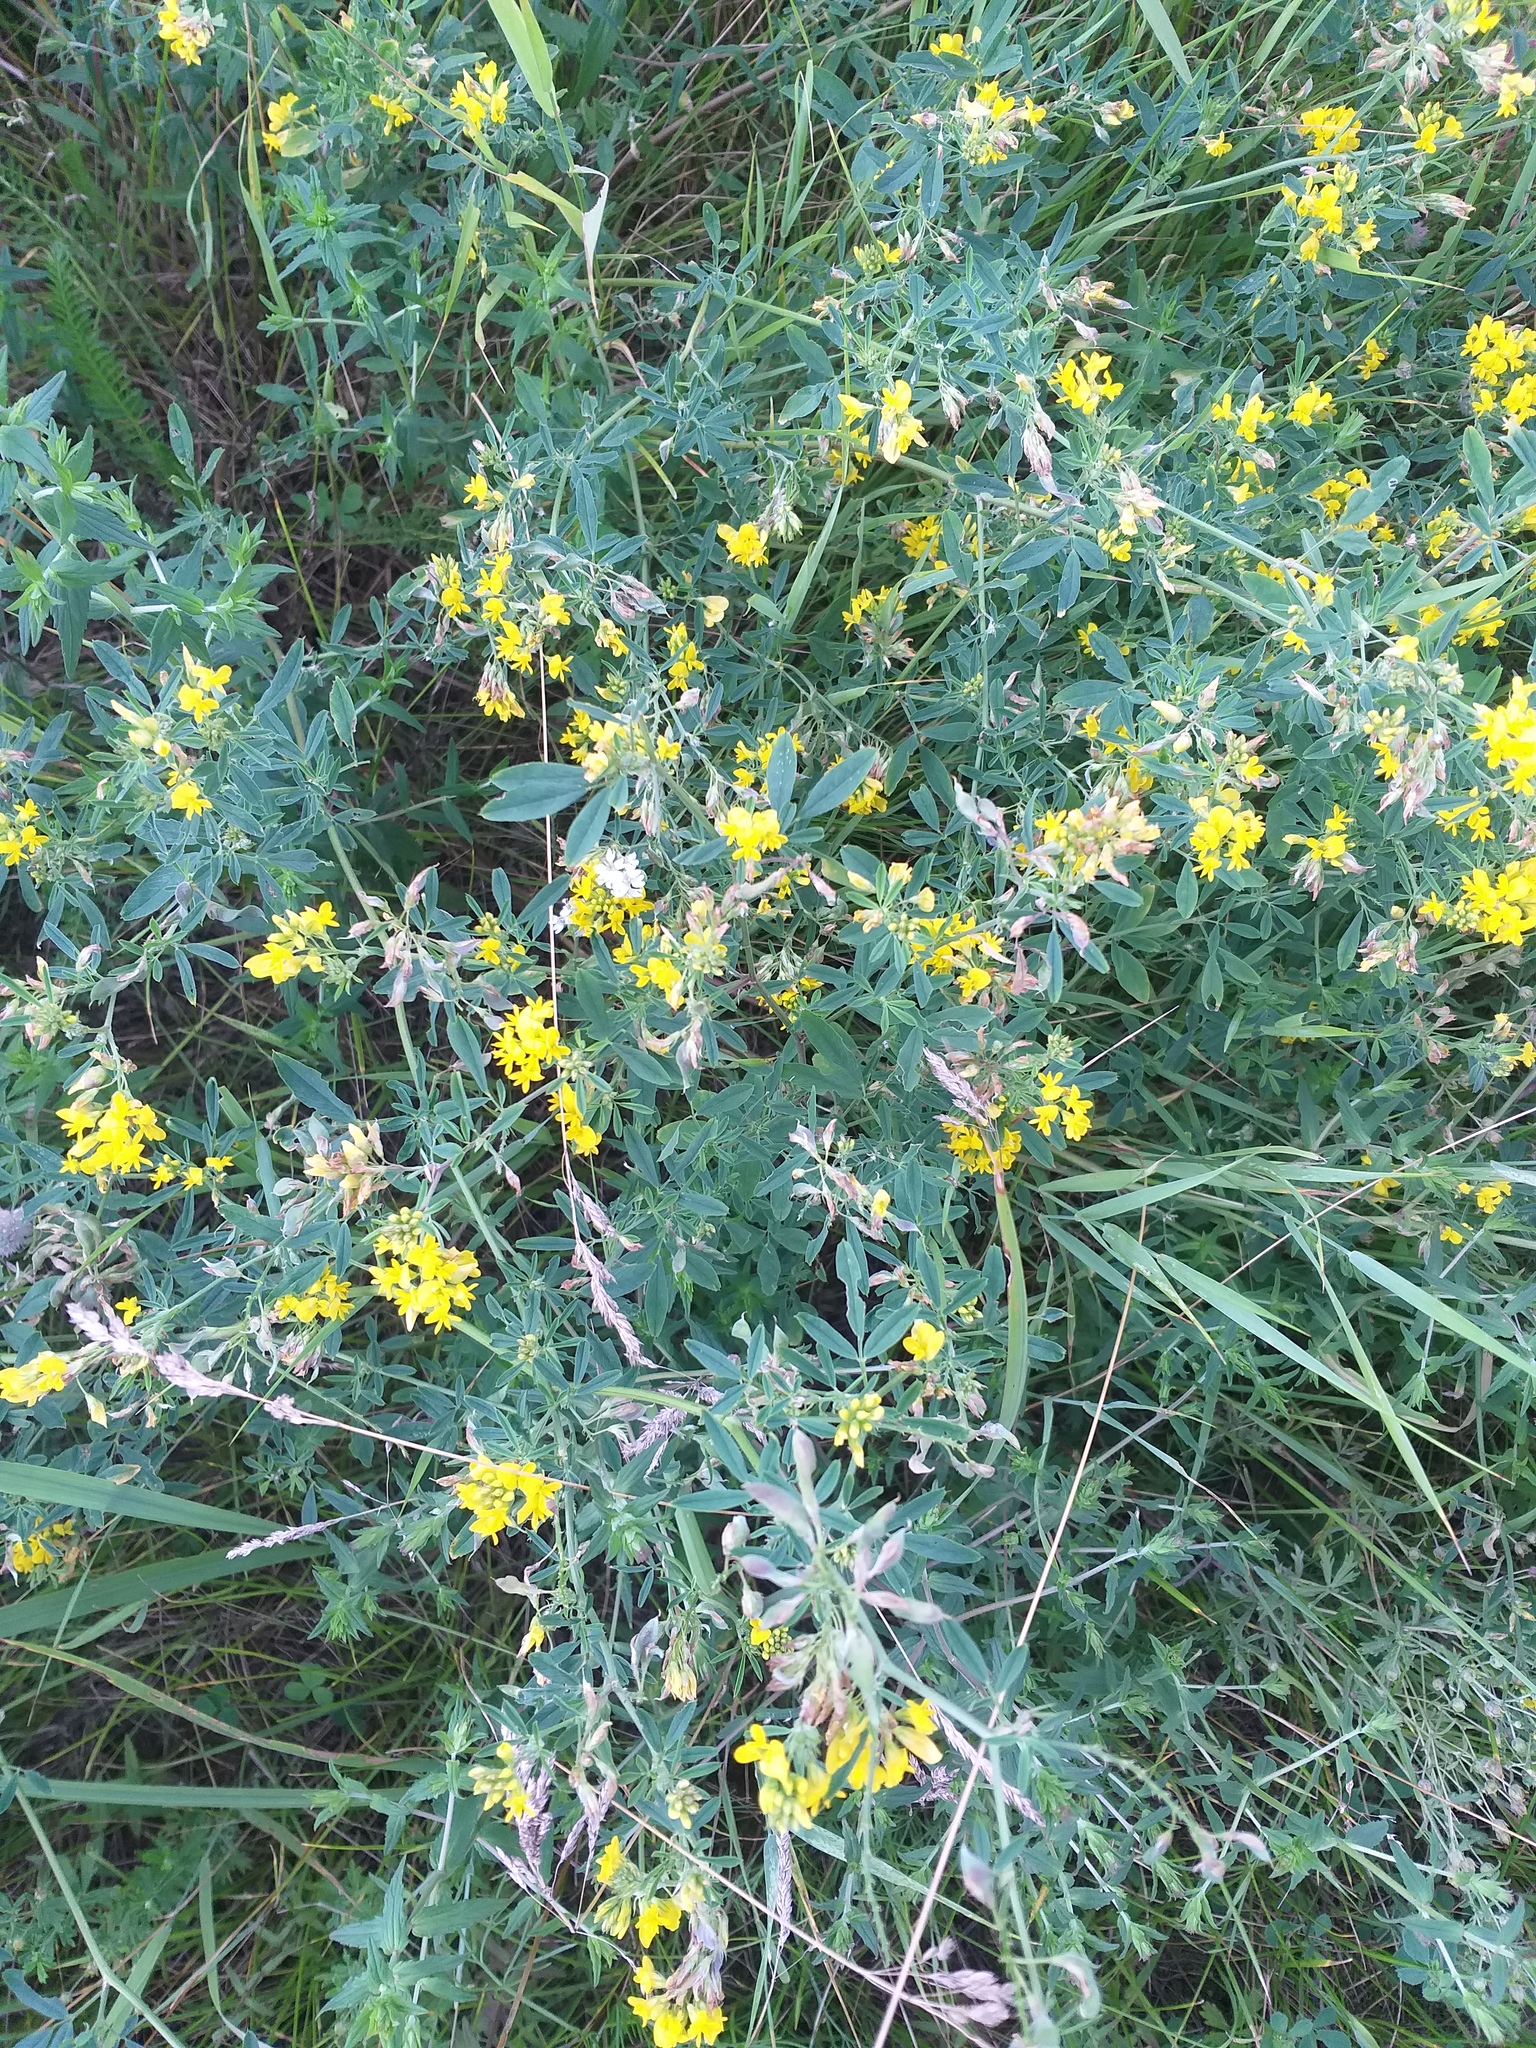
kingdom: Plantae
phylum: Tracheophyta
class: Magnoliopsida
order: Fabales
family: Fabaceae
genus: Medicago
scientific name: Medicago falcata
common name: Sickle medick
